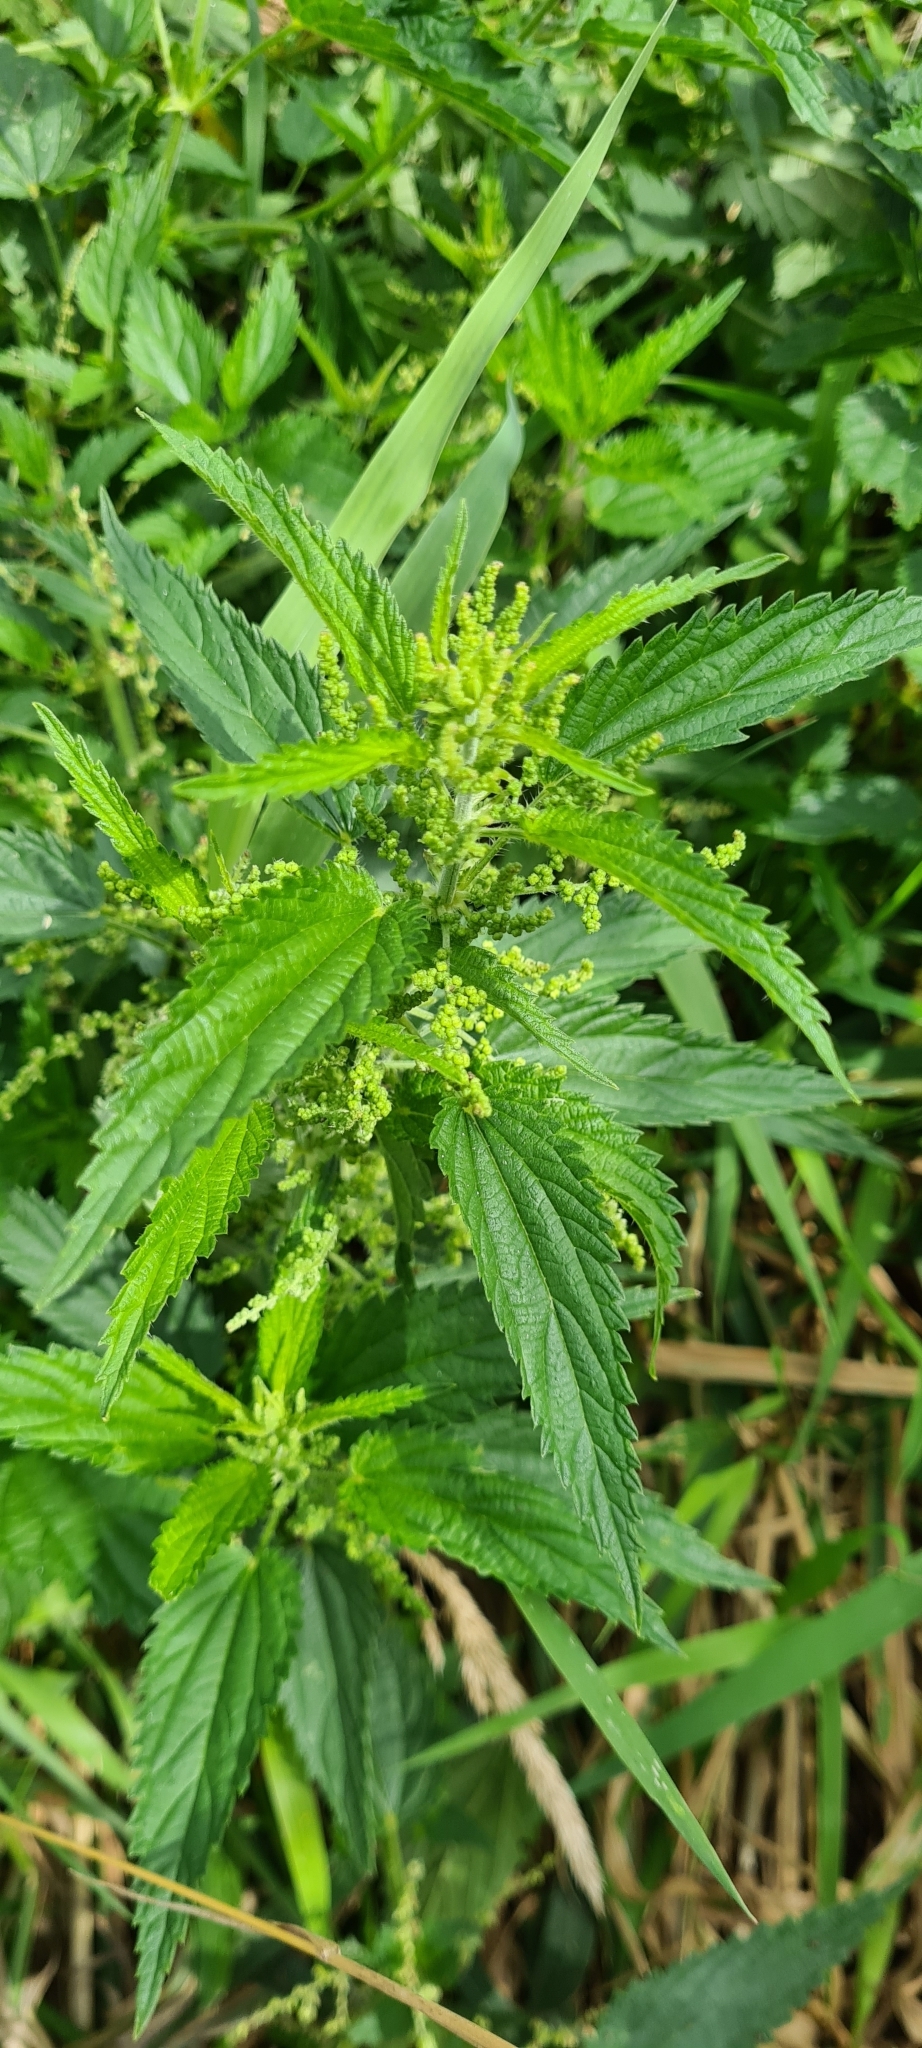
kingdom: Plantae
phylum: Tracheophyta
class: Magnoliopsida
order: Rosales
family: Urticaceae
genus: Urtica
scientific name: Urtica dioica
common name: Common nettle
